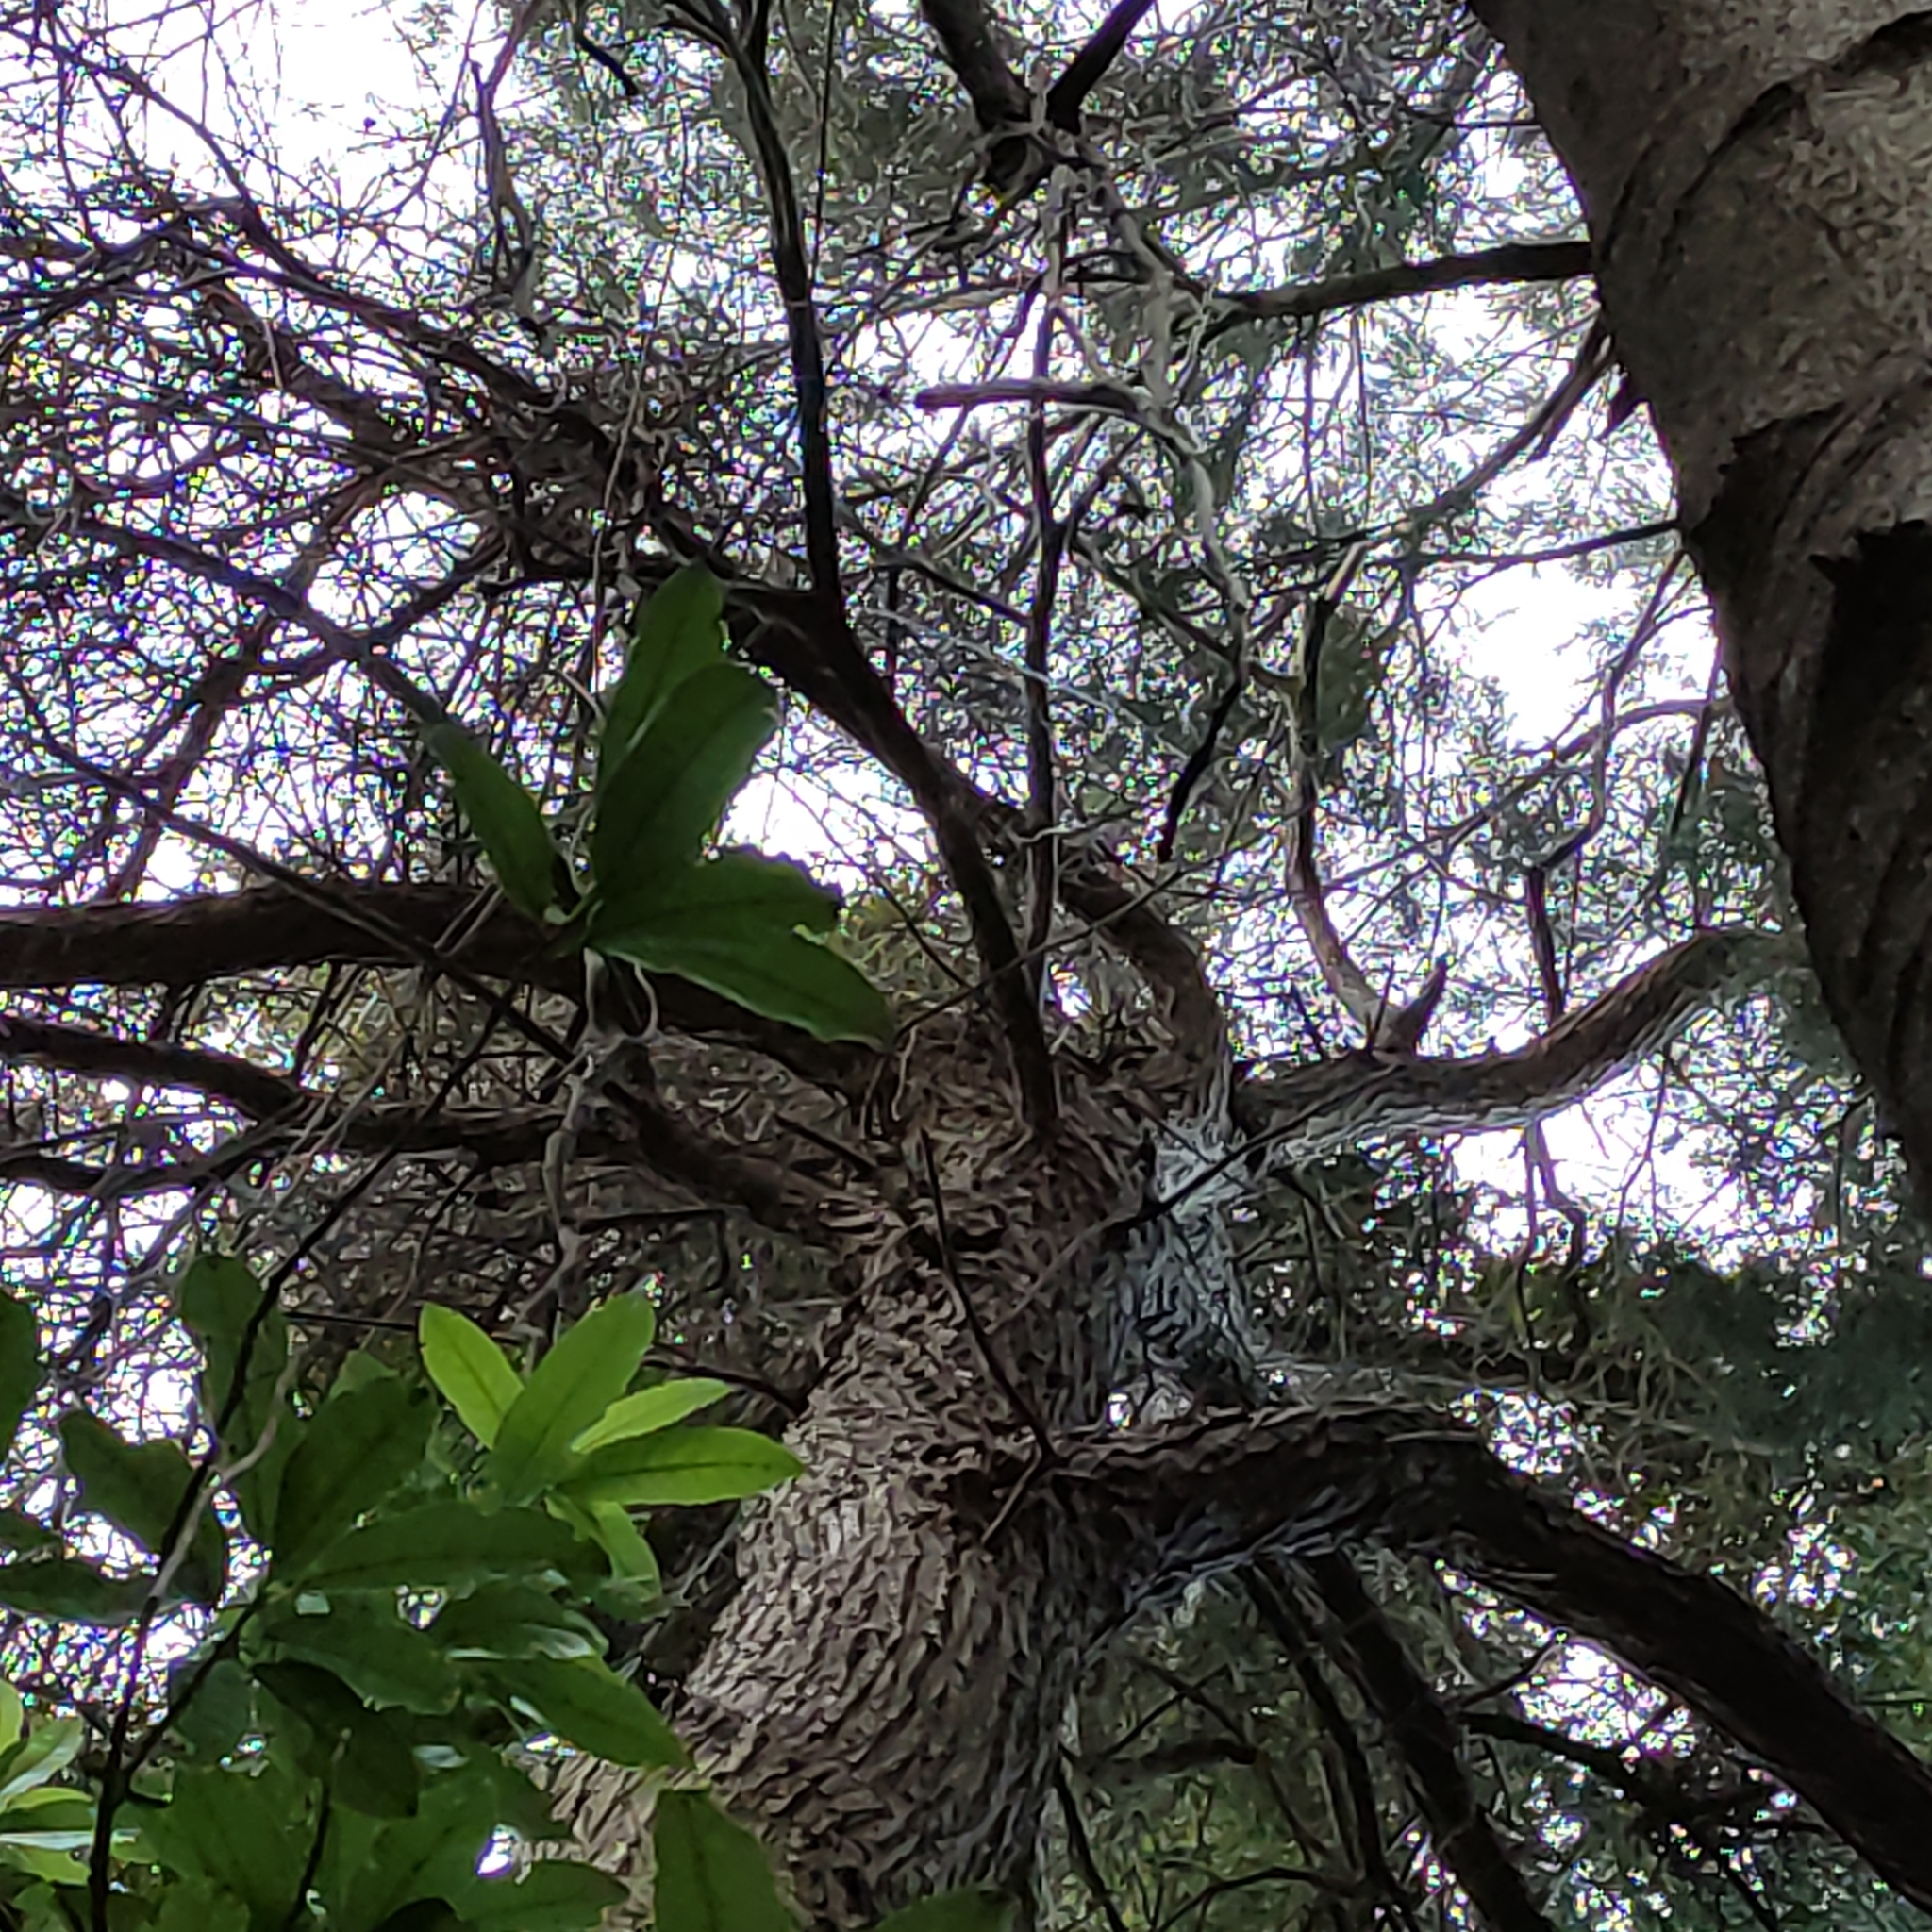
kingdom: Plantae
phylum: Tracheophyta
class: Pinopsida
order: Pinales
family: Podocarpaceae
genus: Podocarpus
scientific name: Podocarpus totara
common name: Totara
